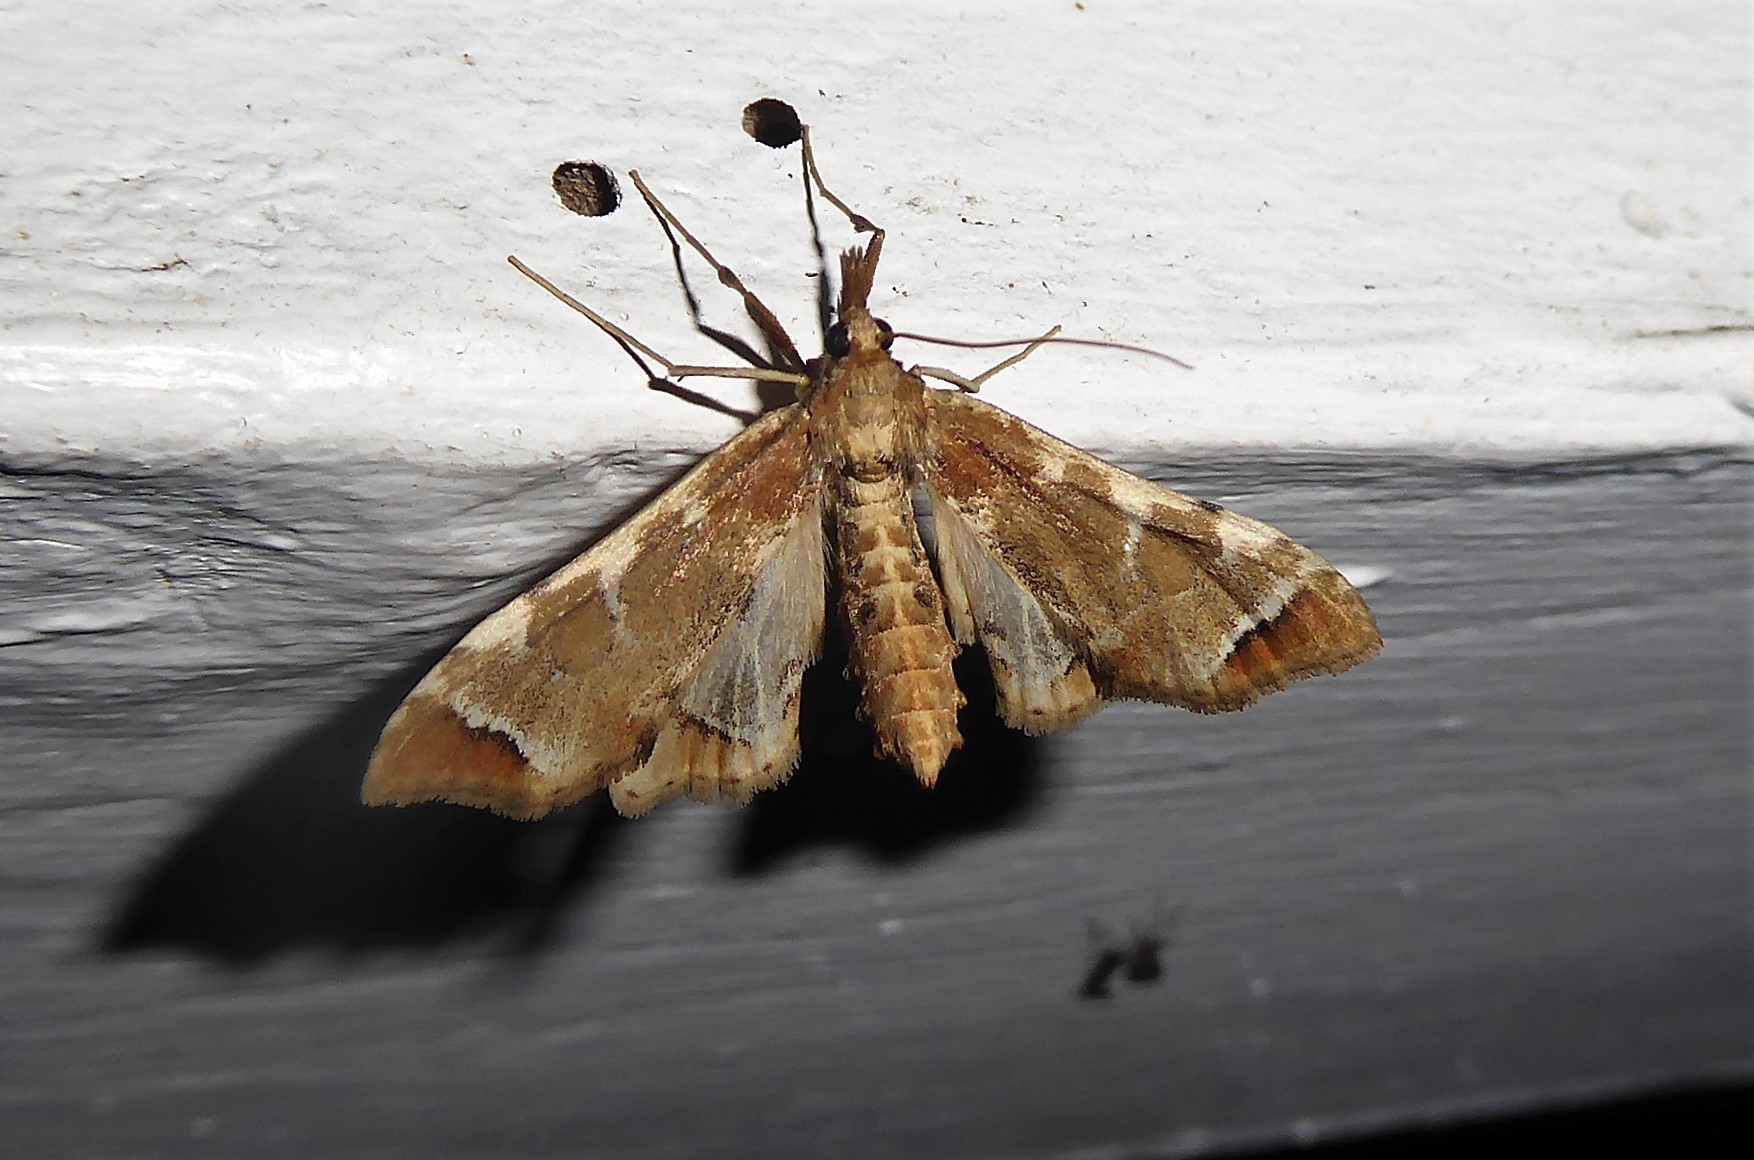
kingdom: Animalia
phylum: Arthropoda
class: Insecta
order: Lepidoptera
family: Crambidae
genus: Sceliodes
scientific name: Sceliodes cordalis
